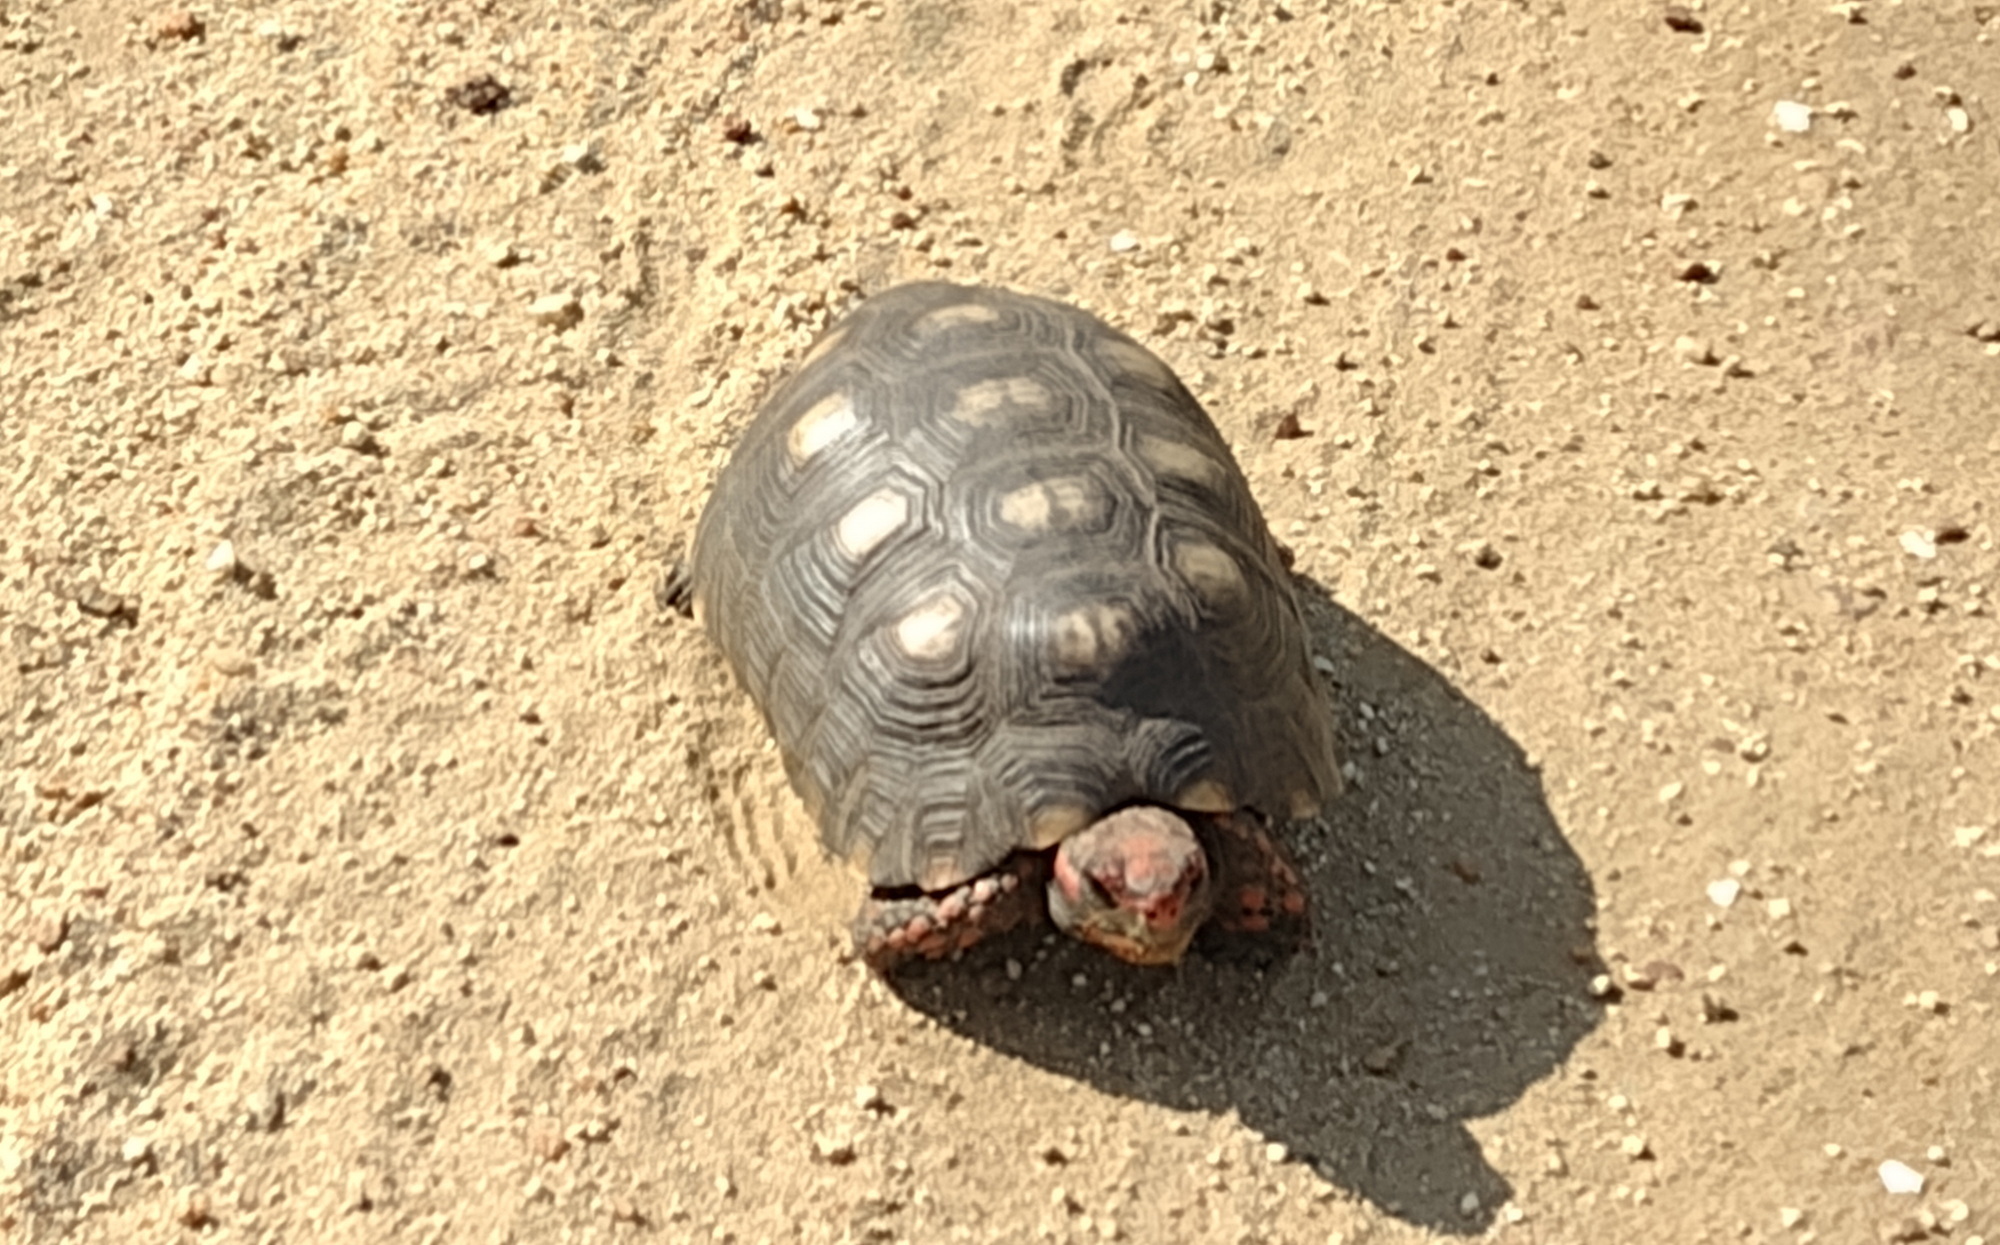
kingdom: Animalia
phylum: Chordata
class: Testudines
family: Testudinidae
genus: Chelonoidis
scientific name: Chelonoidis carbonarius
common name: Red-footed tortoise
